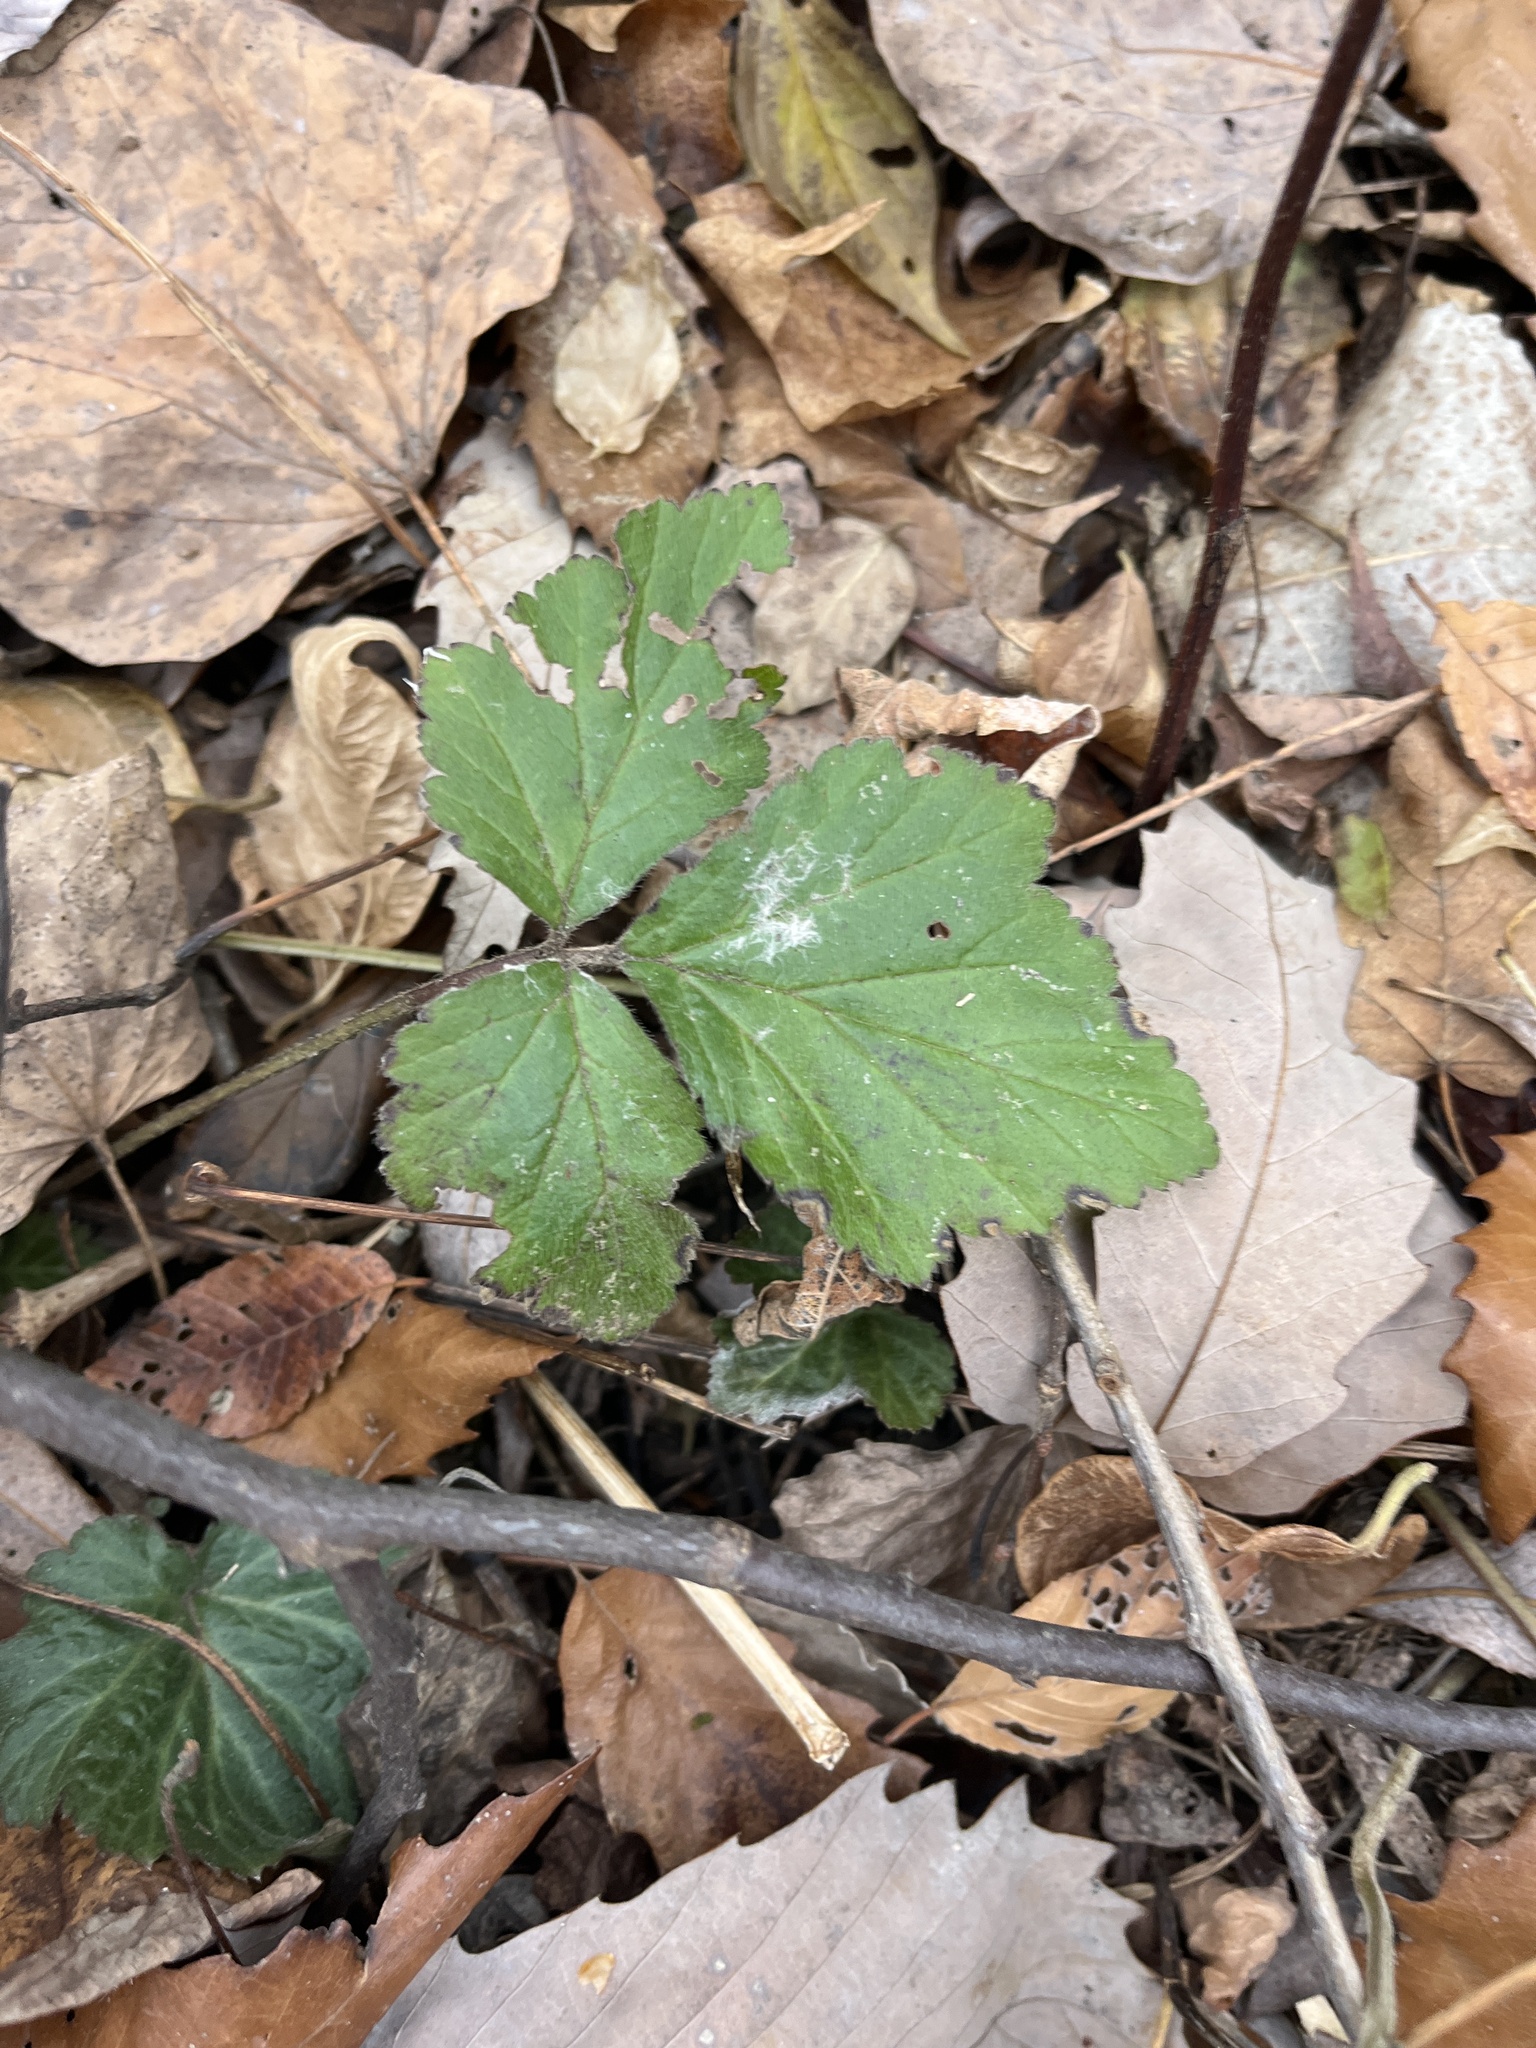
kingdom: Plantae
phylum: Tracheophyta
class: Magnoliopsida
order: Rosales
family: Rosaceae
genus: Geum
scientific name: Geum canadense
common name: White avens
